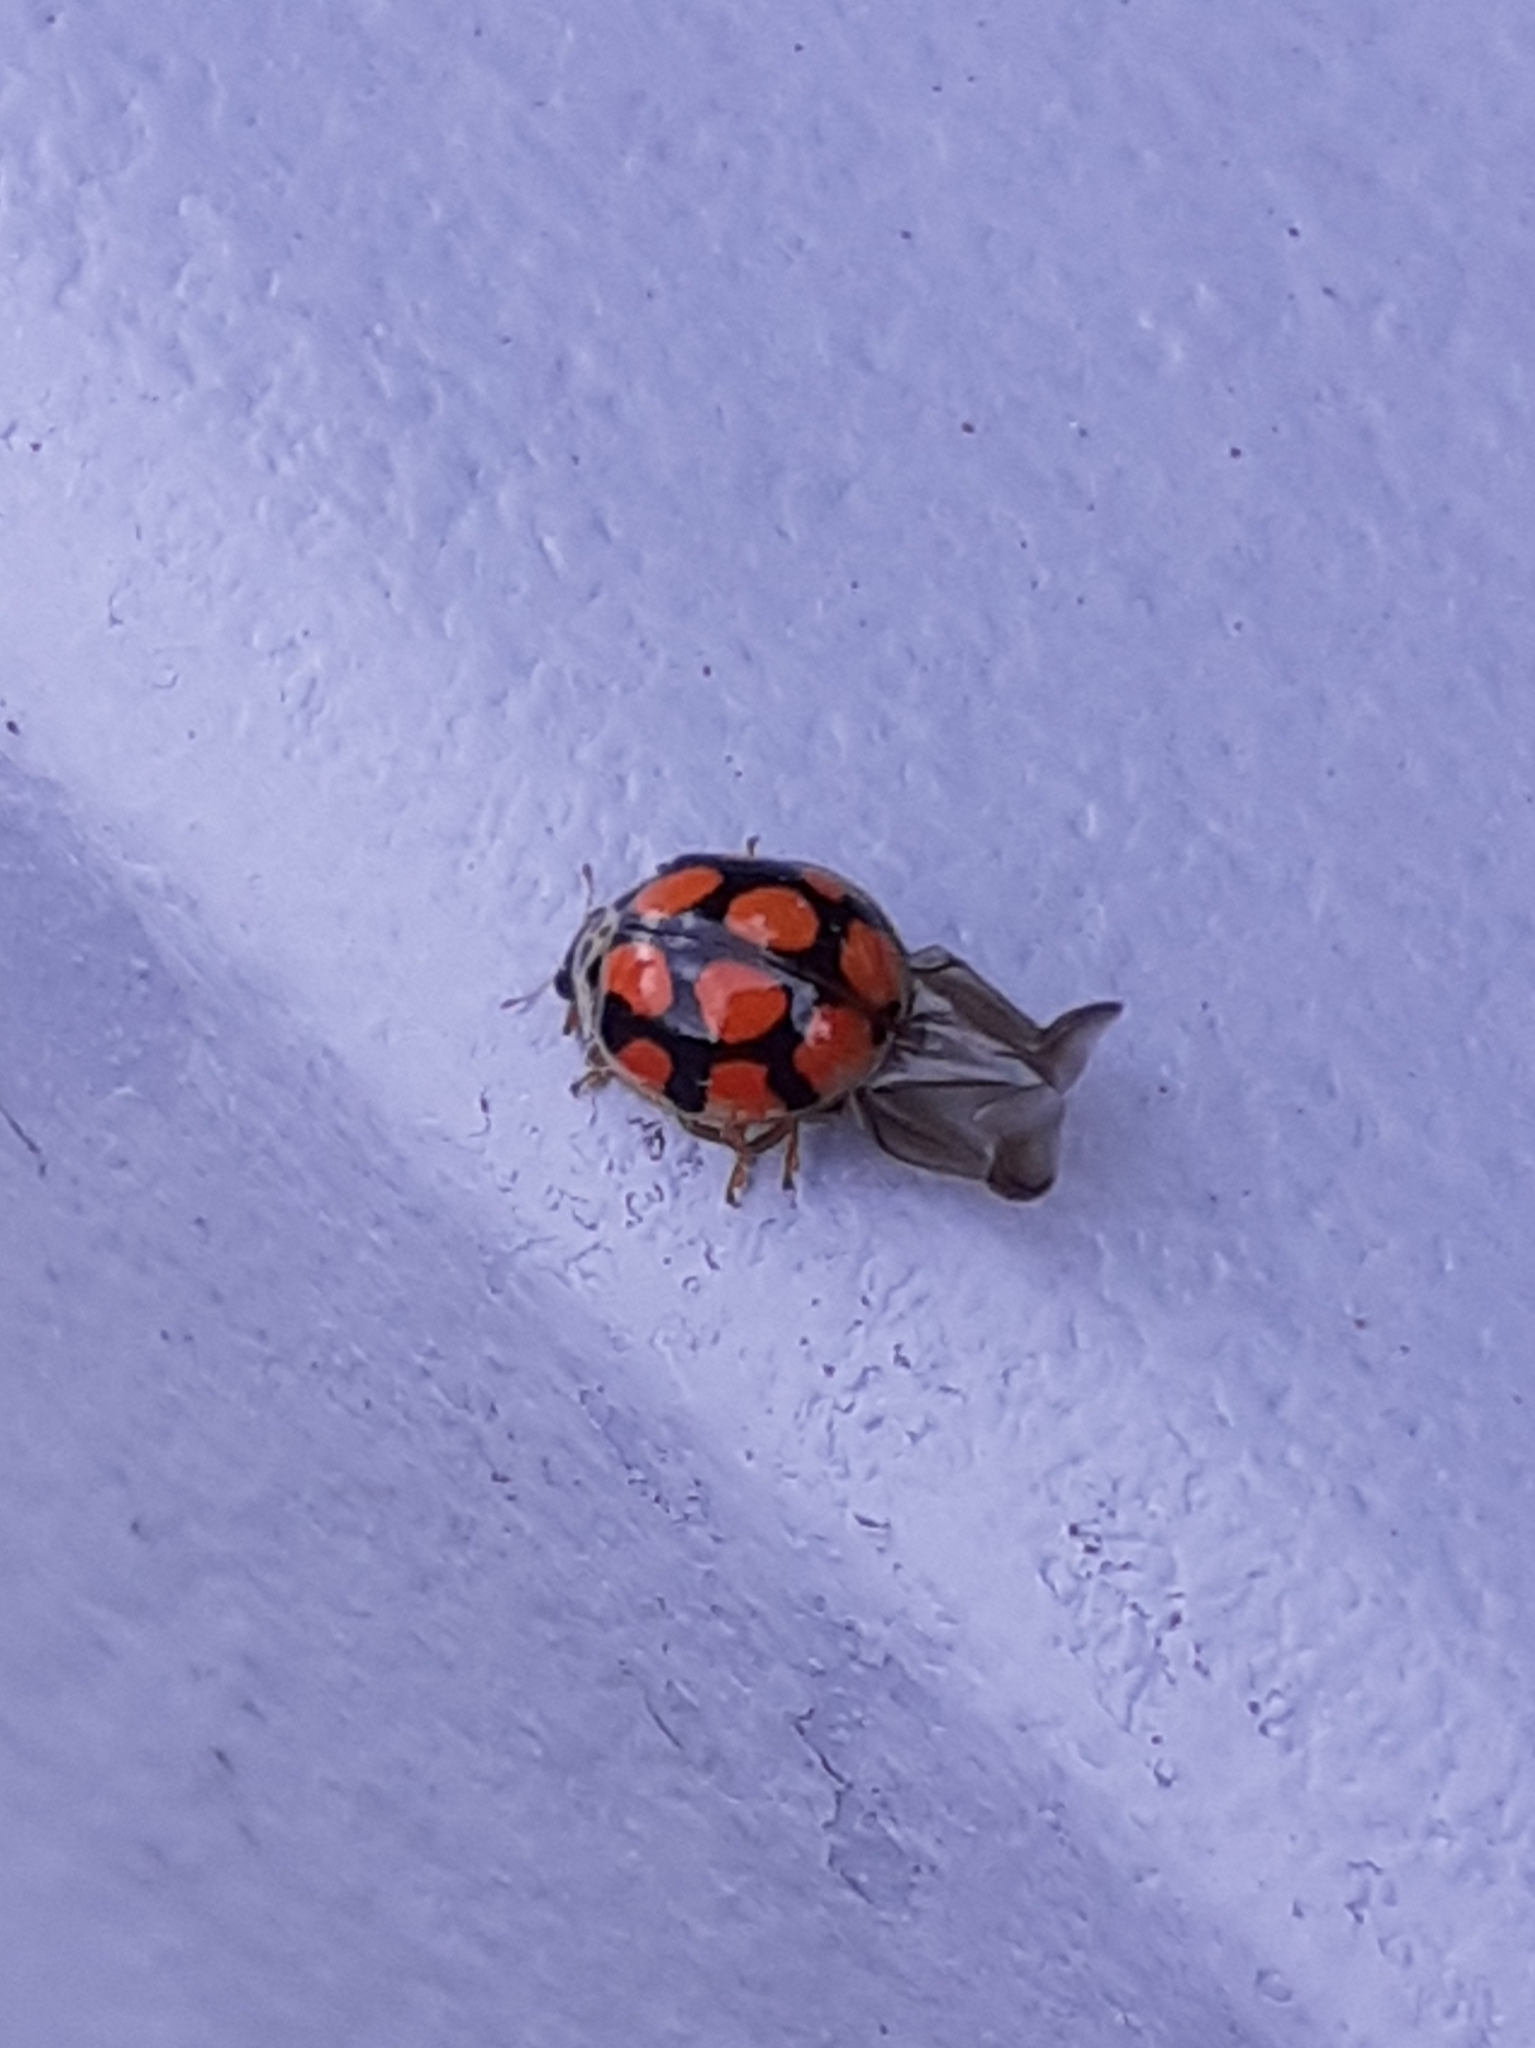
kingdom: Animalia
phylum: Arthropoda
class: Insecta
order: Coleoptera
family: Coccinellidae
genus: Adalia
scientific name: Adalia decempunctata
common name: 10-spot ladybird
